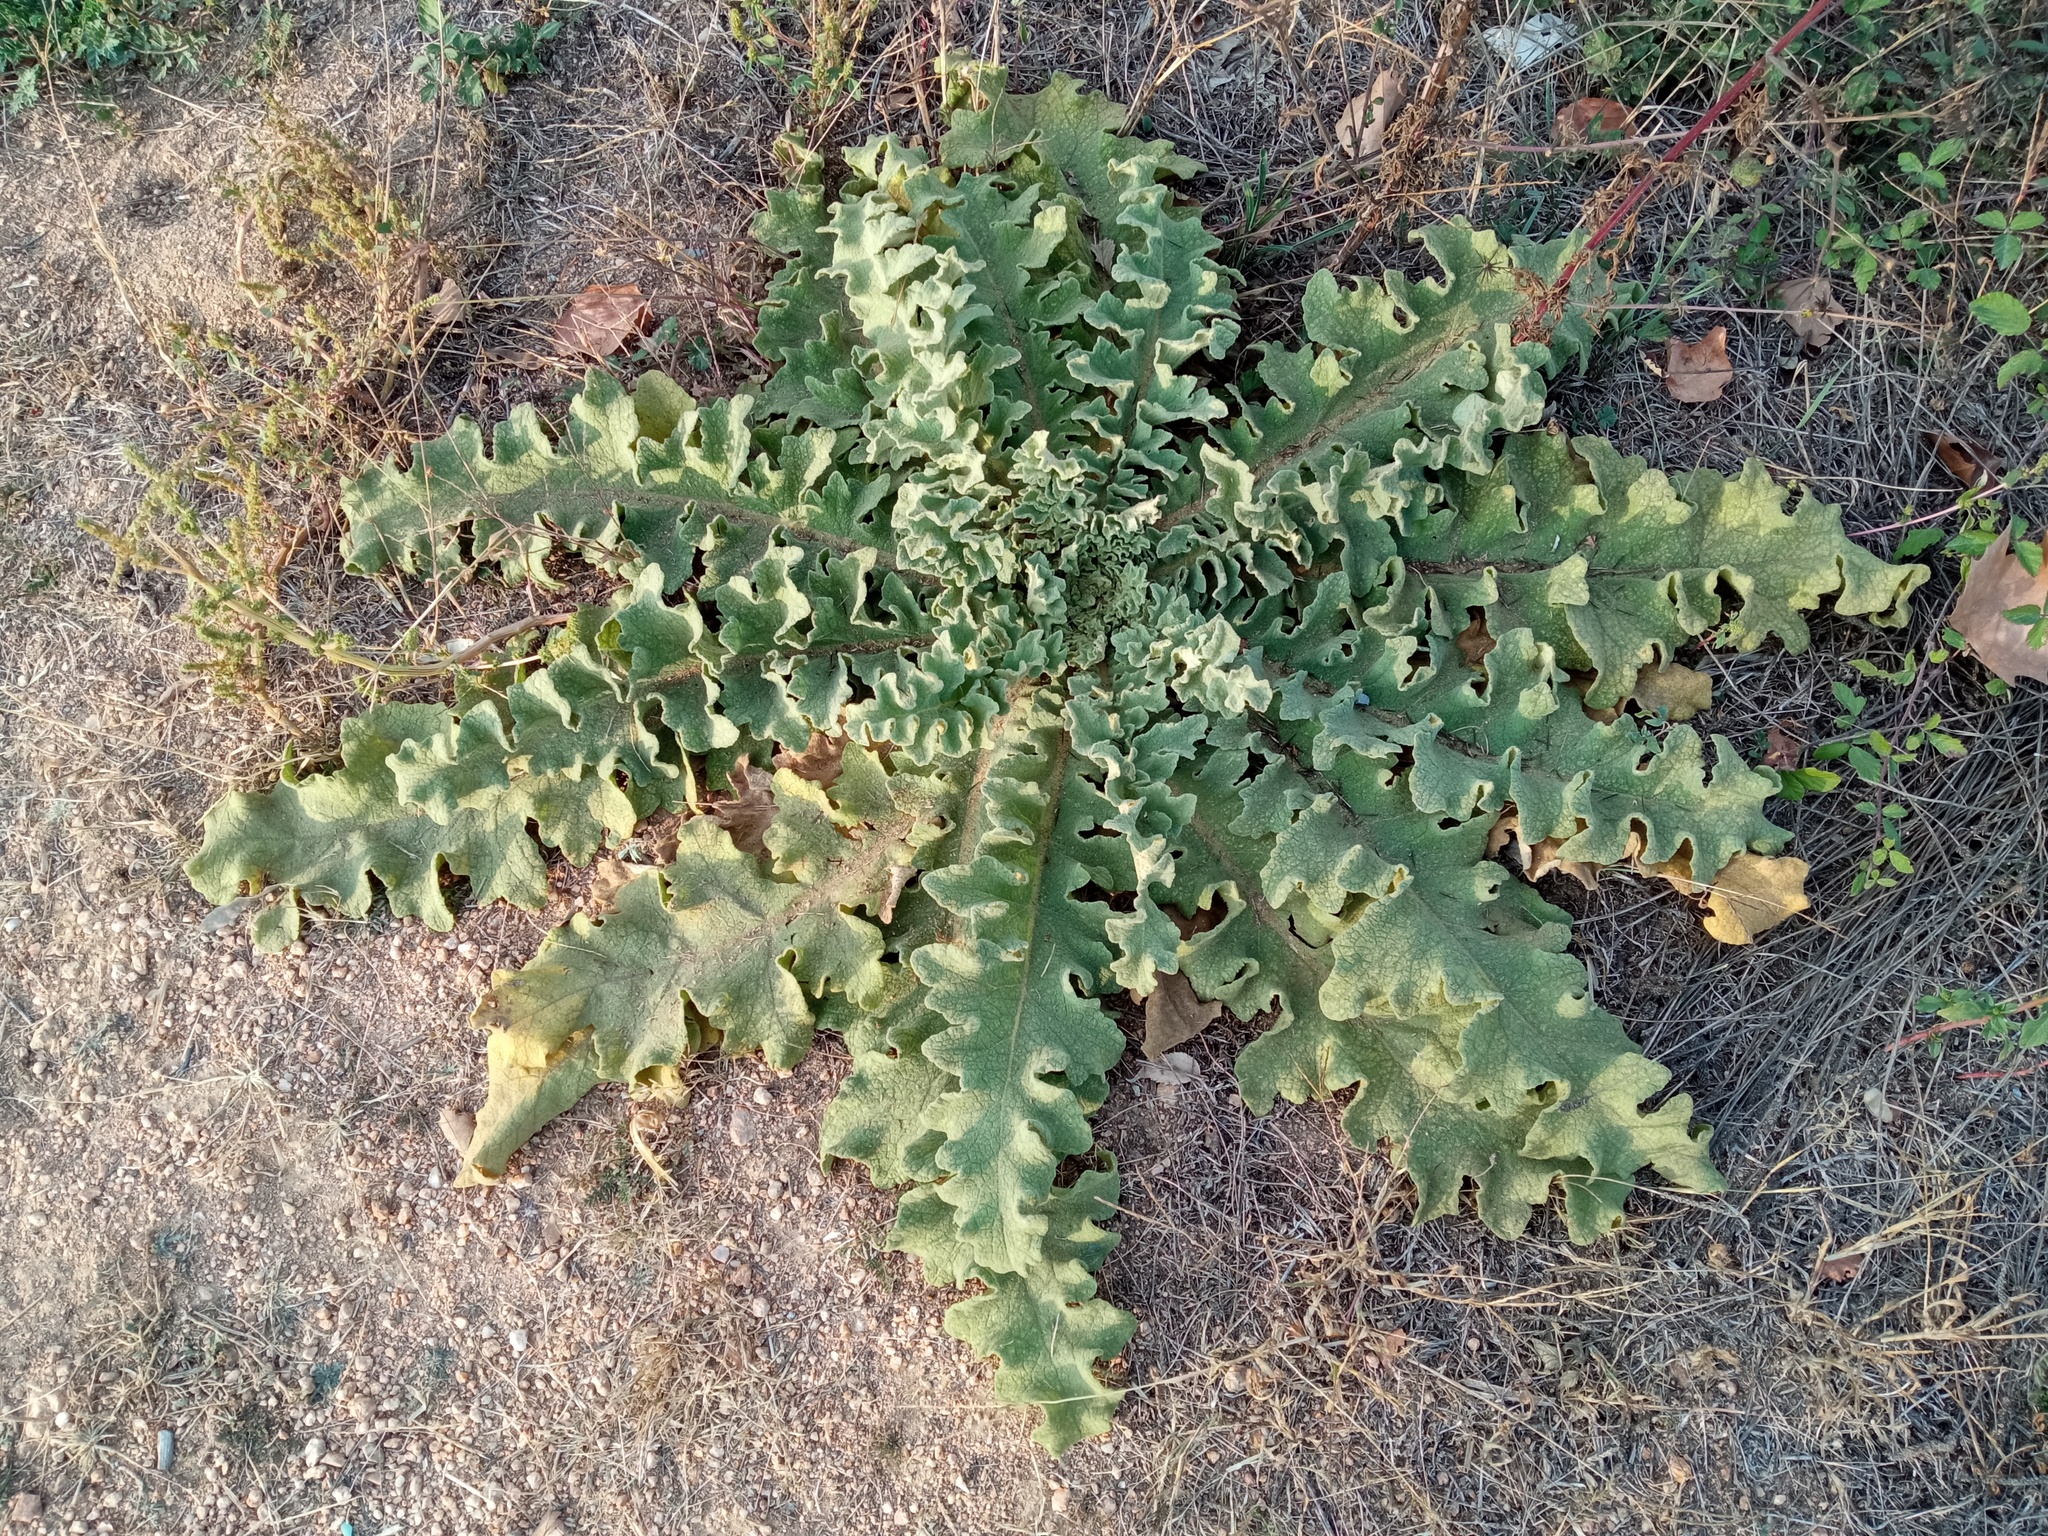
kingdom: Plantae
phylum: Tracheophyta
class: Magnoliopsida
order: Lamiales
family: Scrophulariaceae
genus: Verbascum
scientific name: Verbascum sinuatum
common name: Wavyleaf mullein
